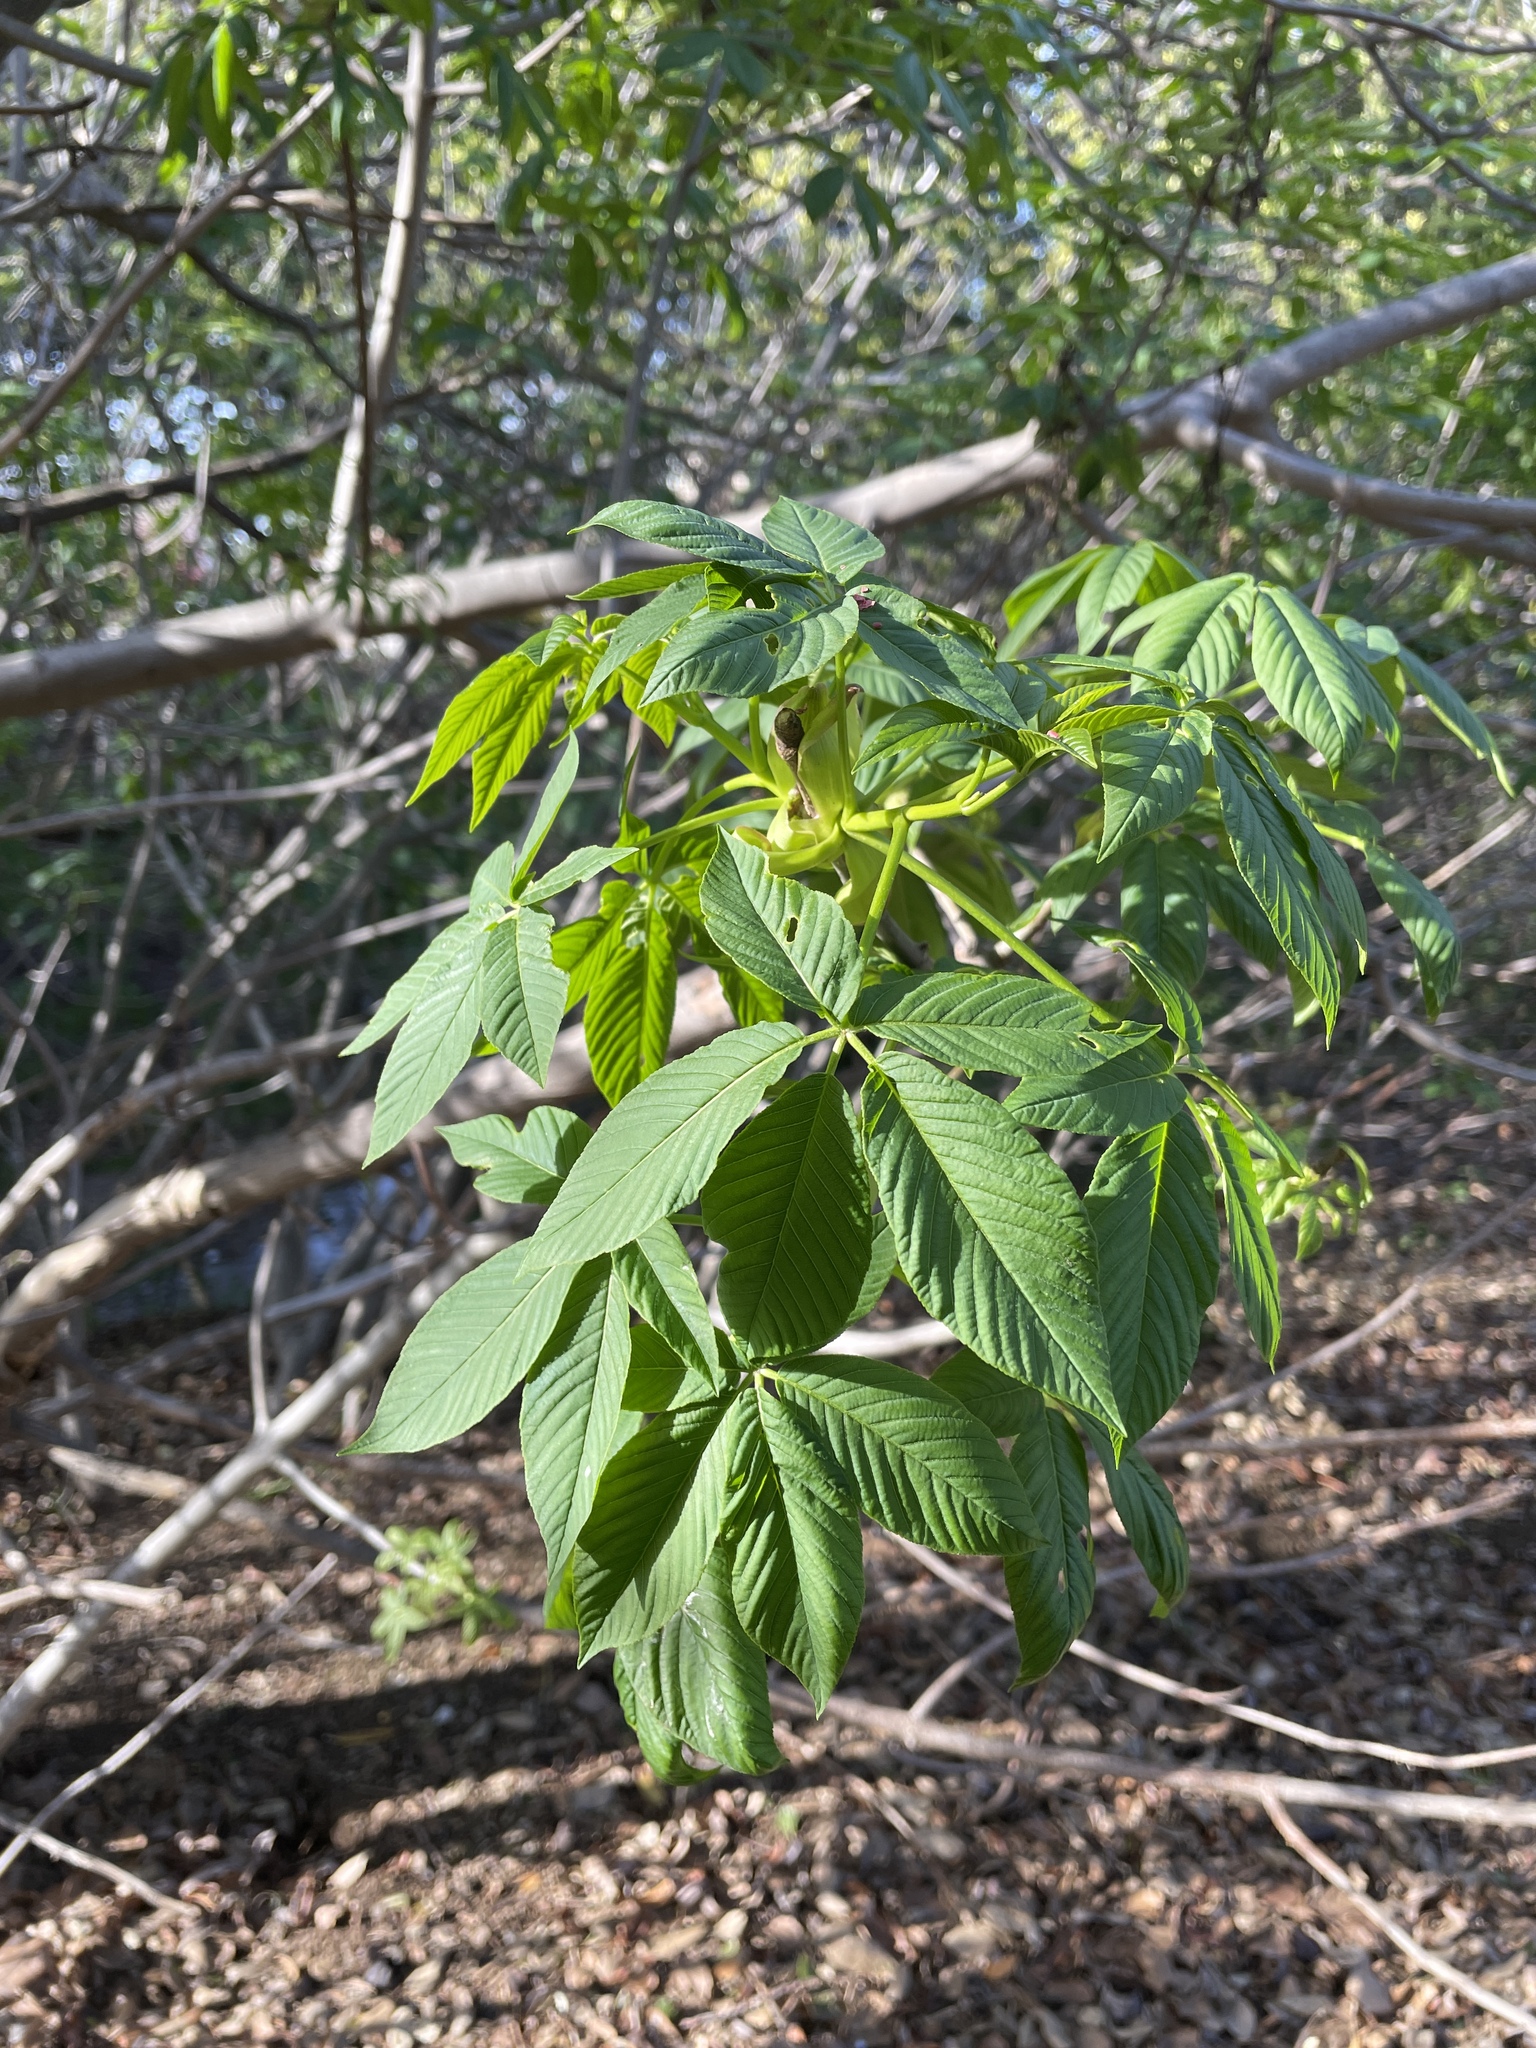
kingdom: Plantae
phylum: Tracheophyta
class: Magnoliopsida
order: Sapindales
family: Sapindaceae
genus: Aesculus
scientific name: Aesculus californica
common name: California buckeye
